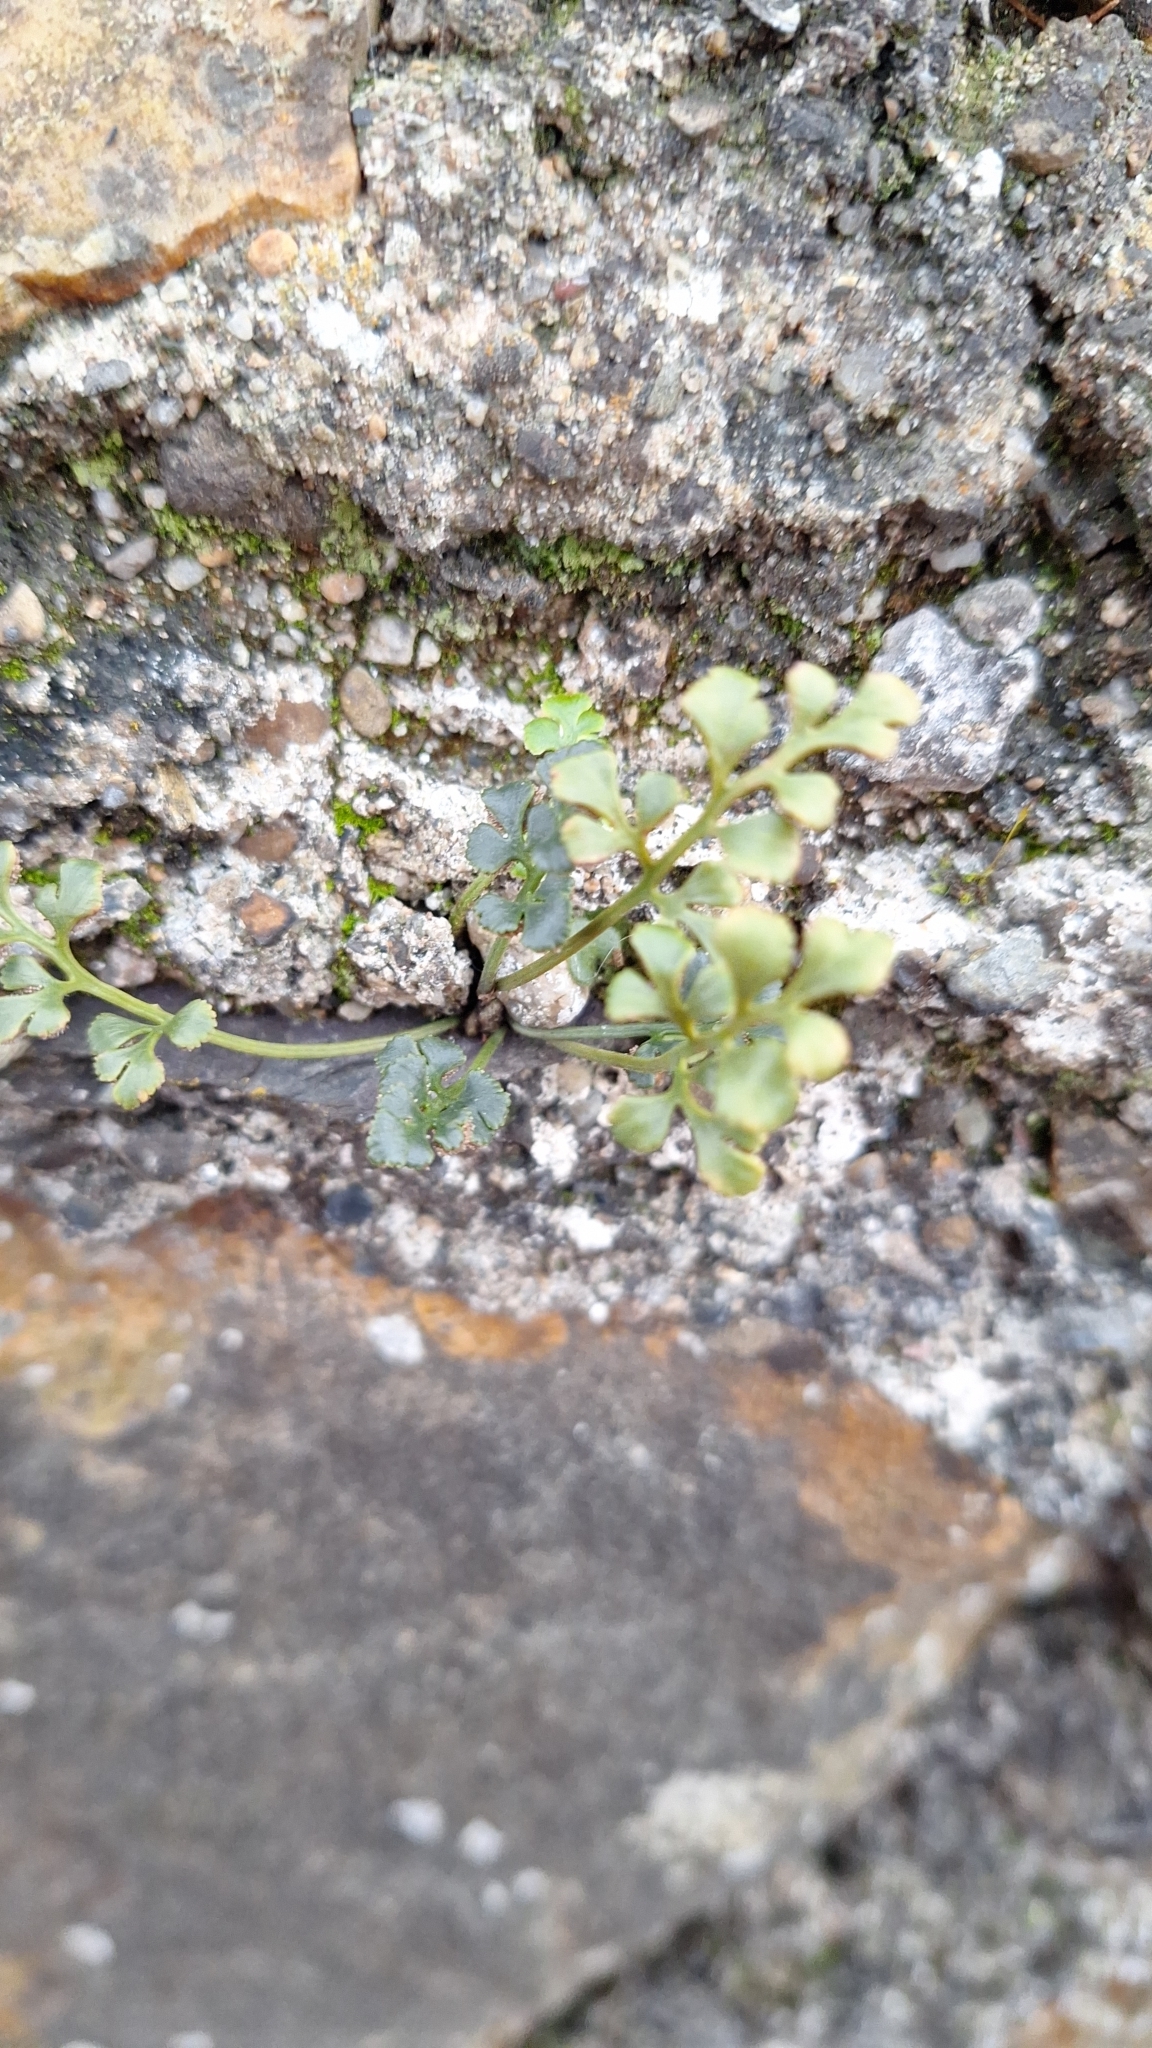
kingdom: Plantae
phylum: Tracheophyta
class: Polypodiopsida
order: Polypodiales
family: Aspleniaceae
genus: Asplenium
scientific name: Asplenium ruta-muraria
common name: Wall-rue
